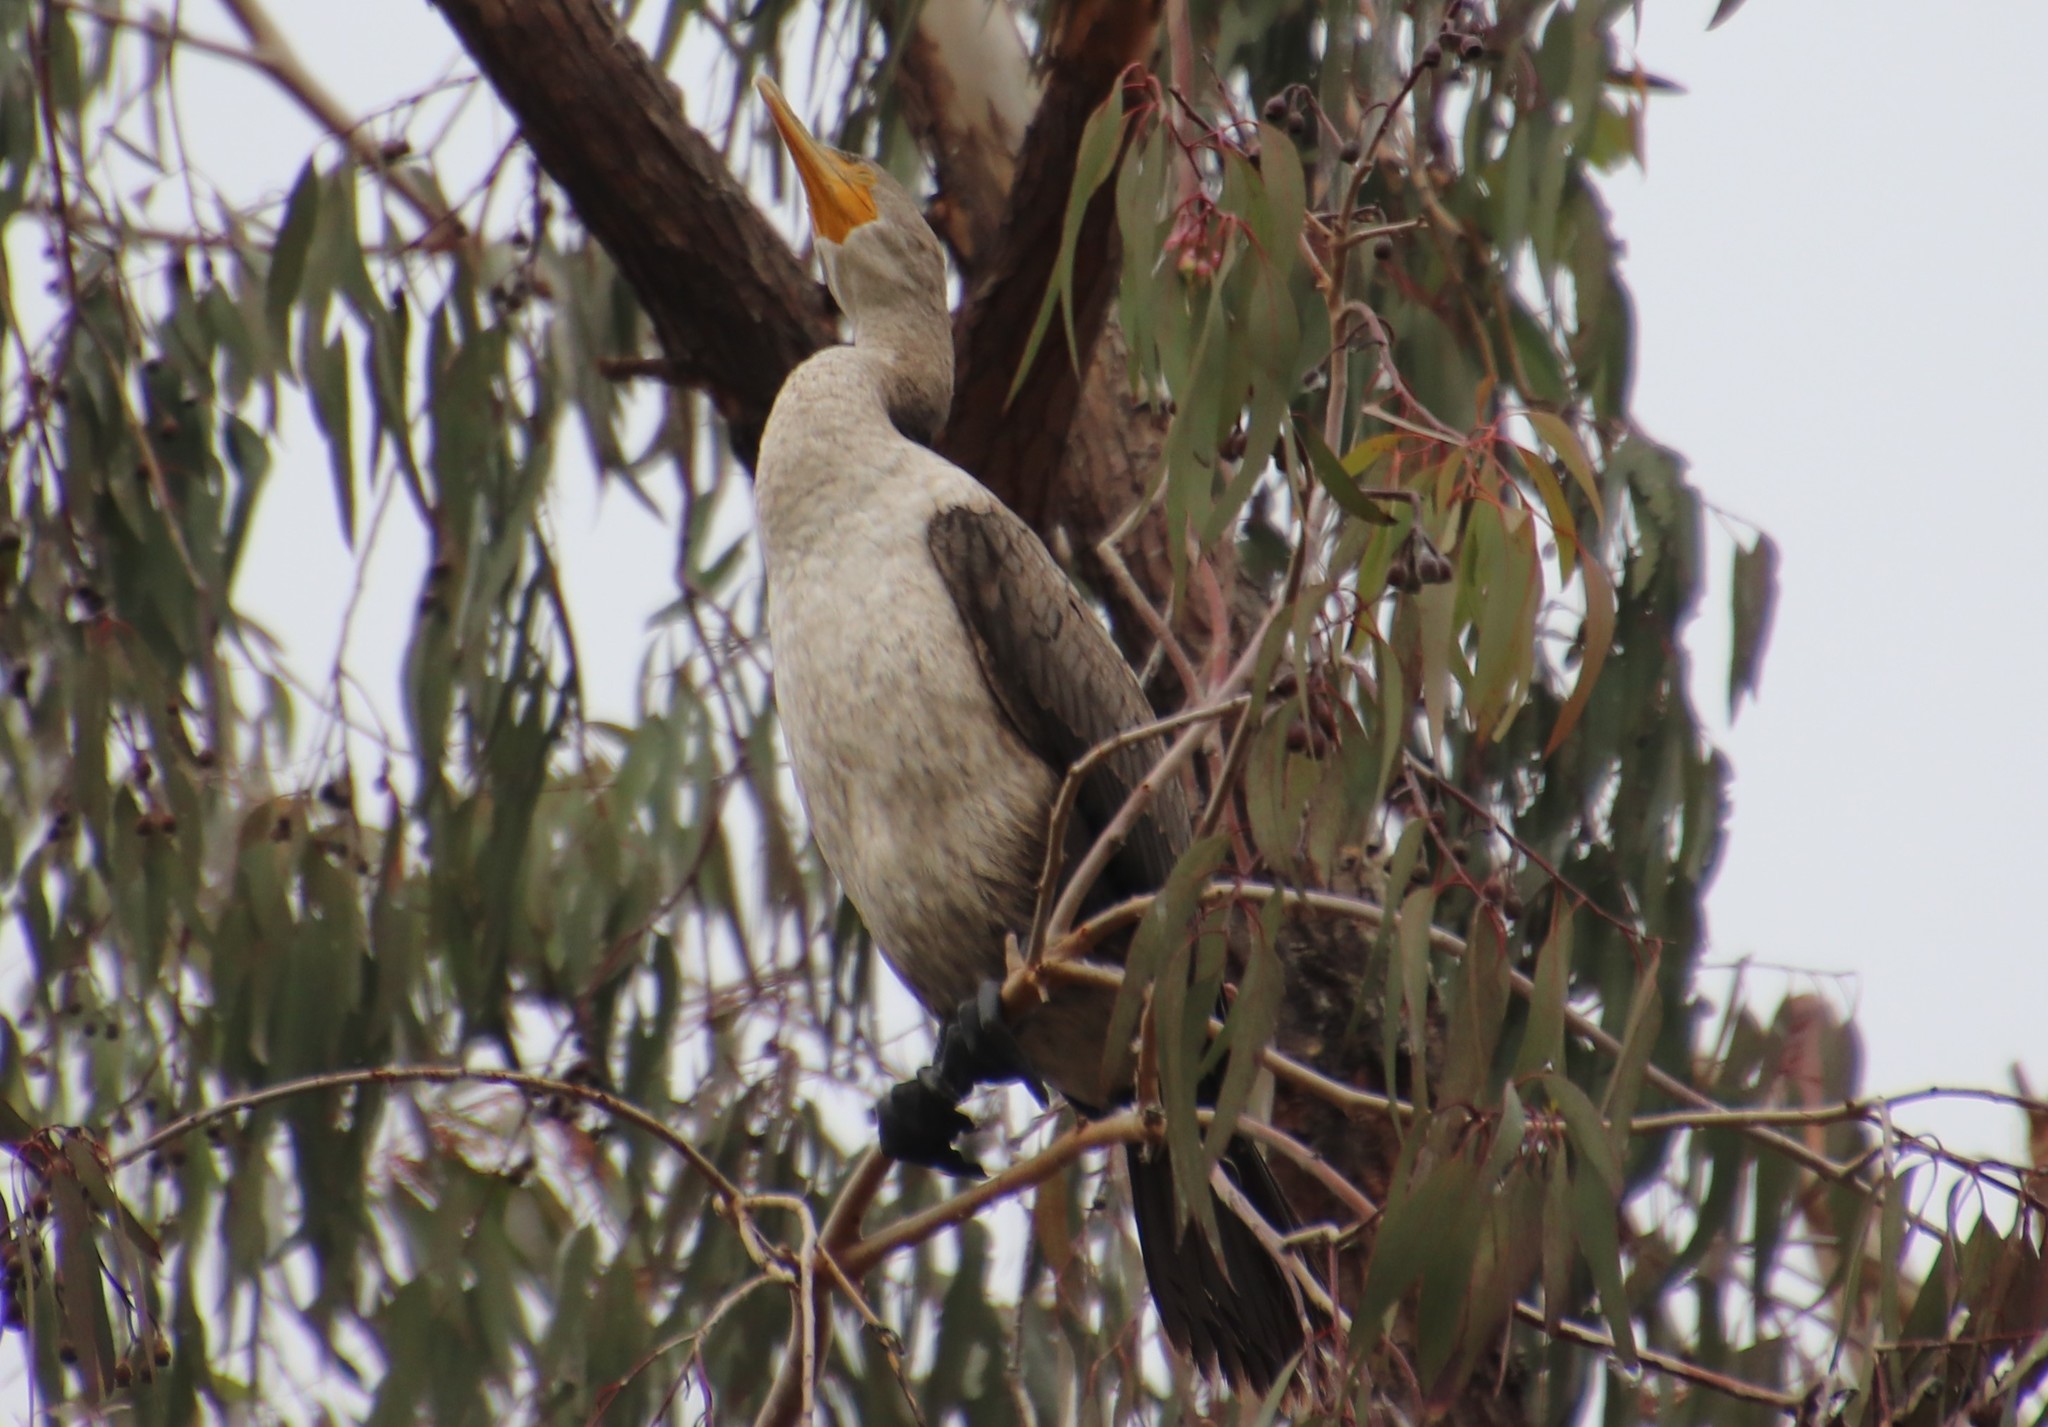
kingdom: Animalia
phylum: Chordata
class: Aves
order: Suliformes
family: Phalacrocoracidae
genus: Phalacrocorax
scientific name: Phalacrocorax auritus
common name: Double-crested cormorant
